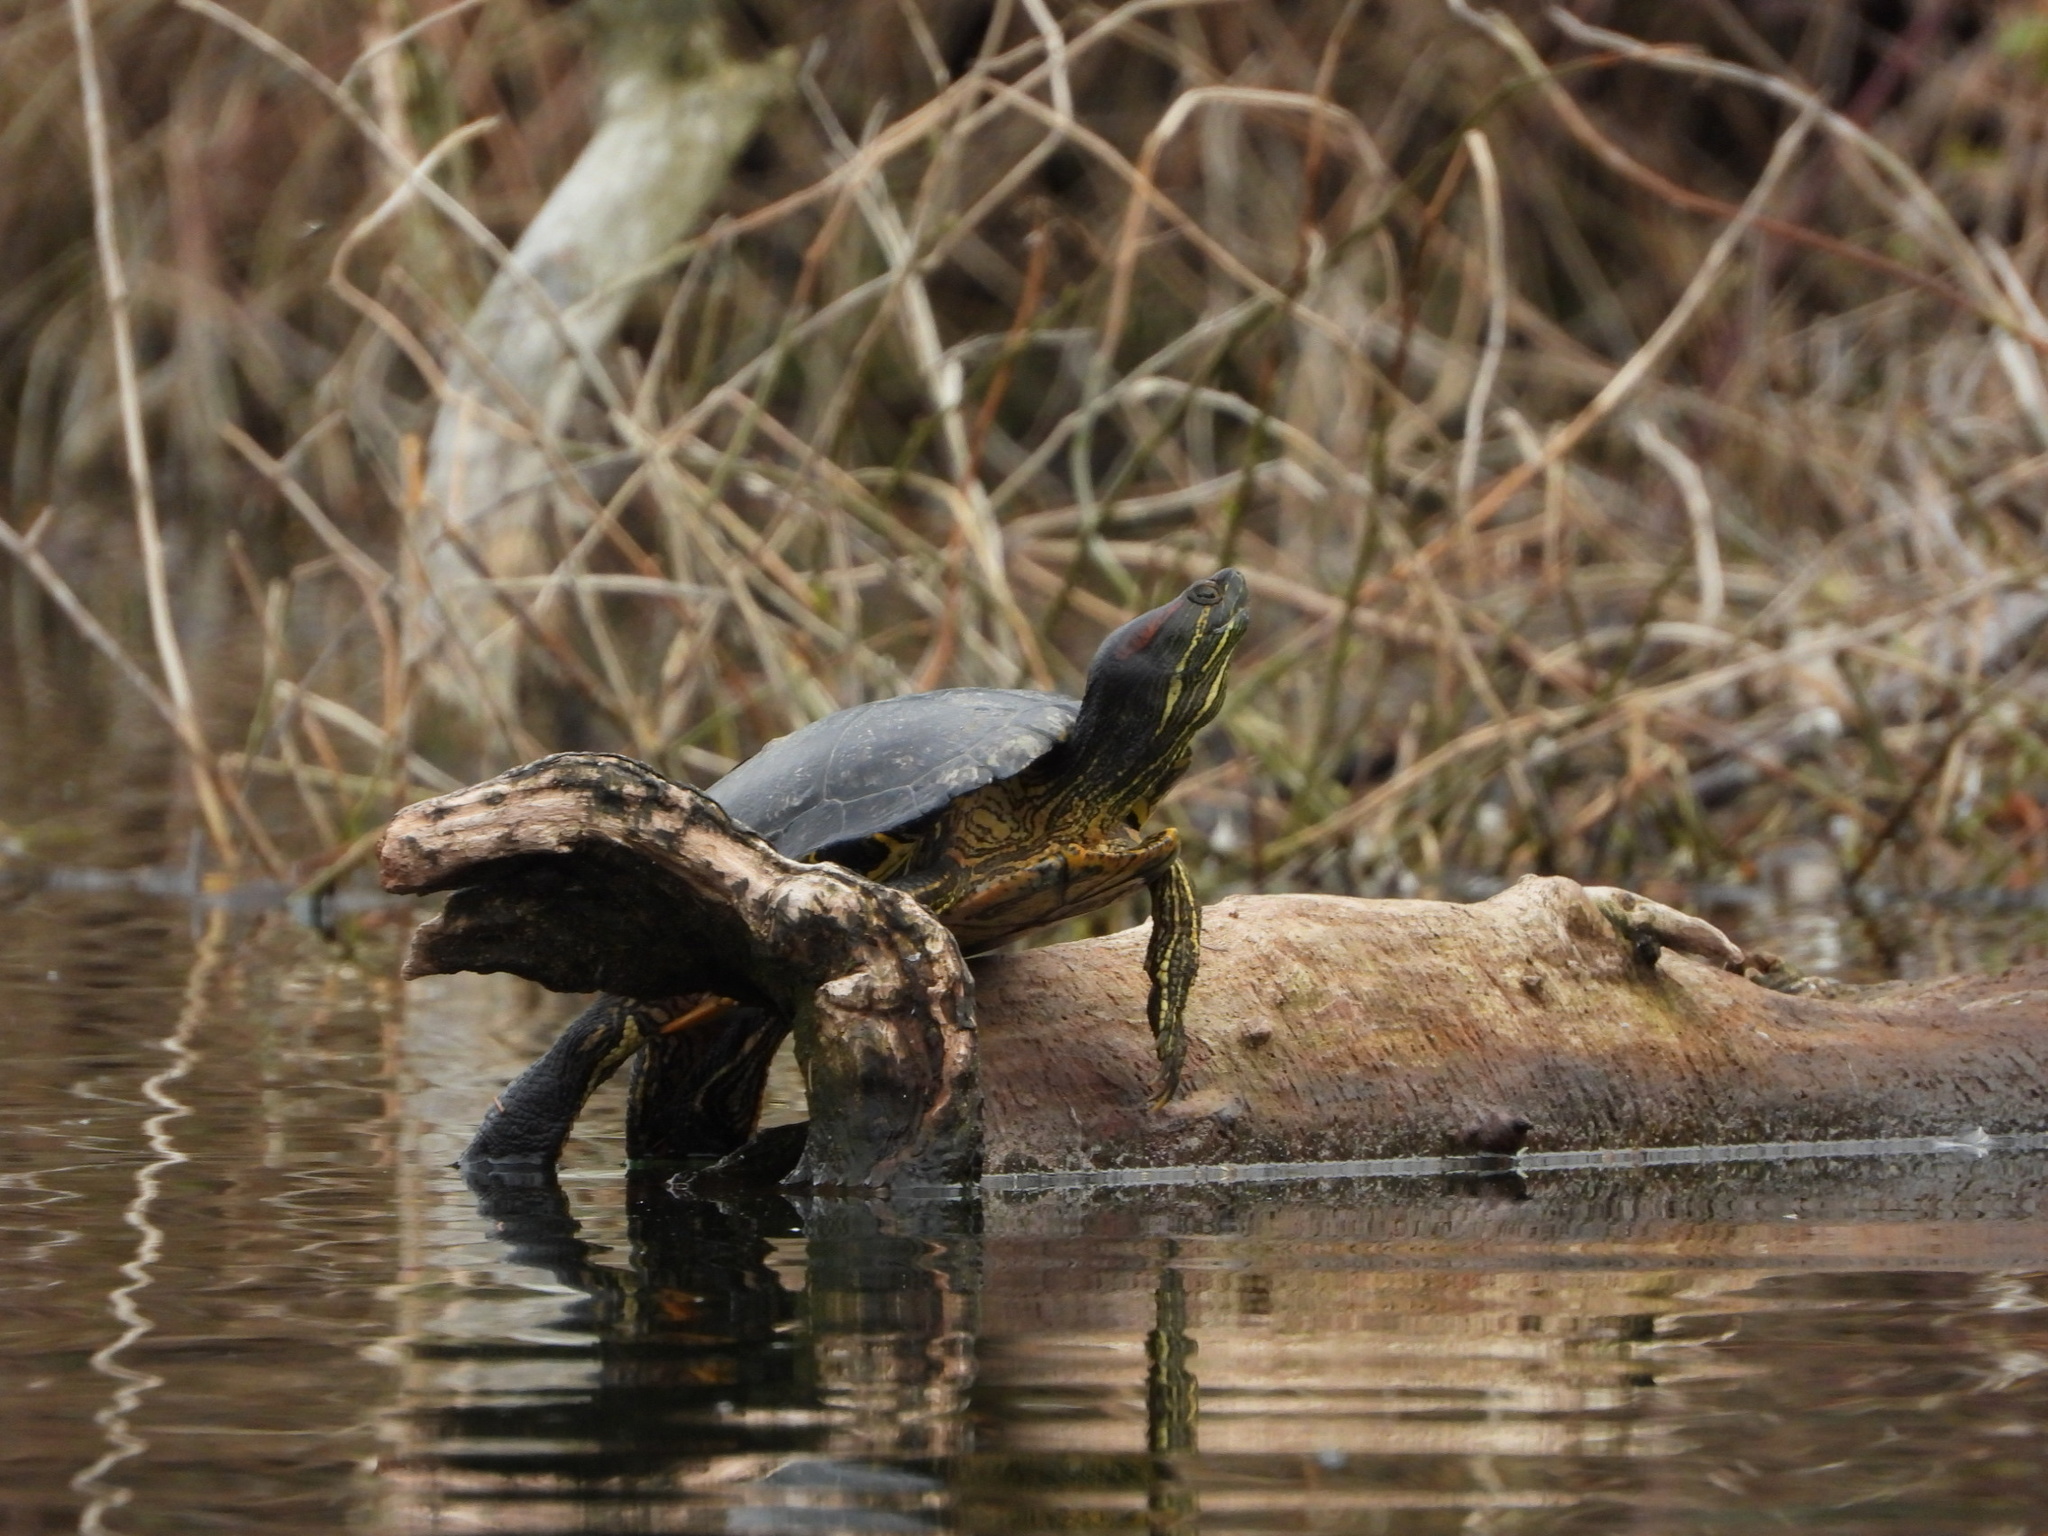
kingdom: Animalia
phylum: Chordata
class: Testudines
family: Emydidae
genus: Trachemys
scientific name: Trachemys scripta
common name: Slider
